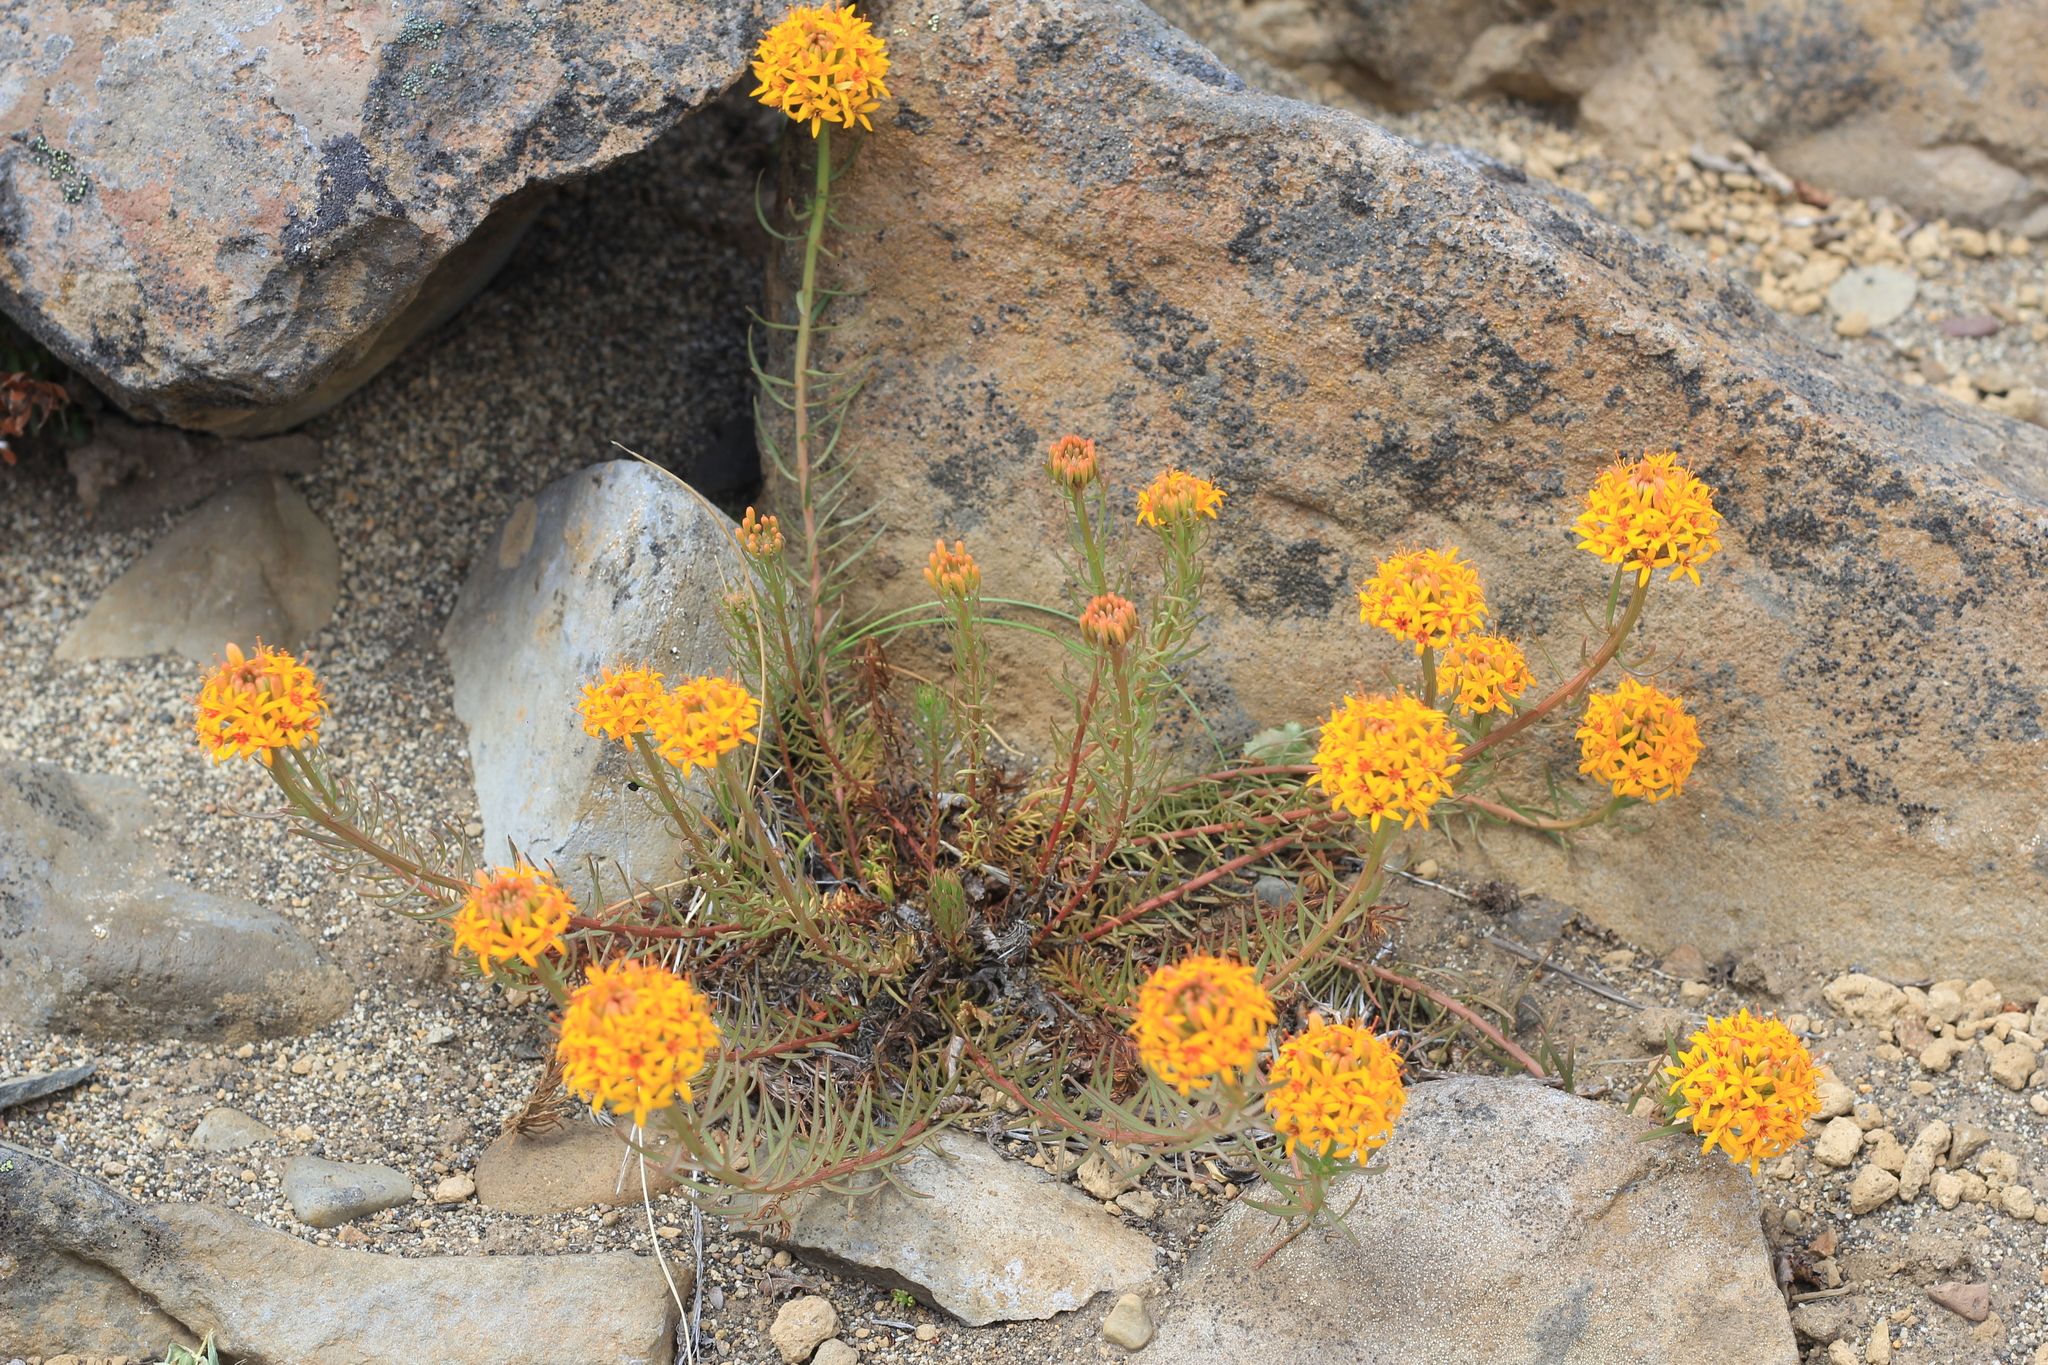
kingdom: Plantae
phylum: Tracheophyta
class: Magnoliopsida
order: Santalales
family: Schoepfiaceae
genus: Quinchamalium
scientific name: Quinchamalium chilense
